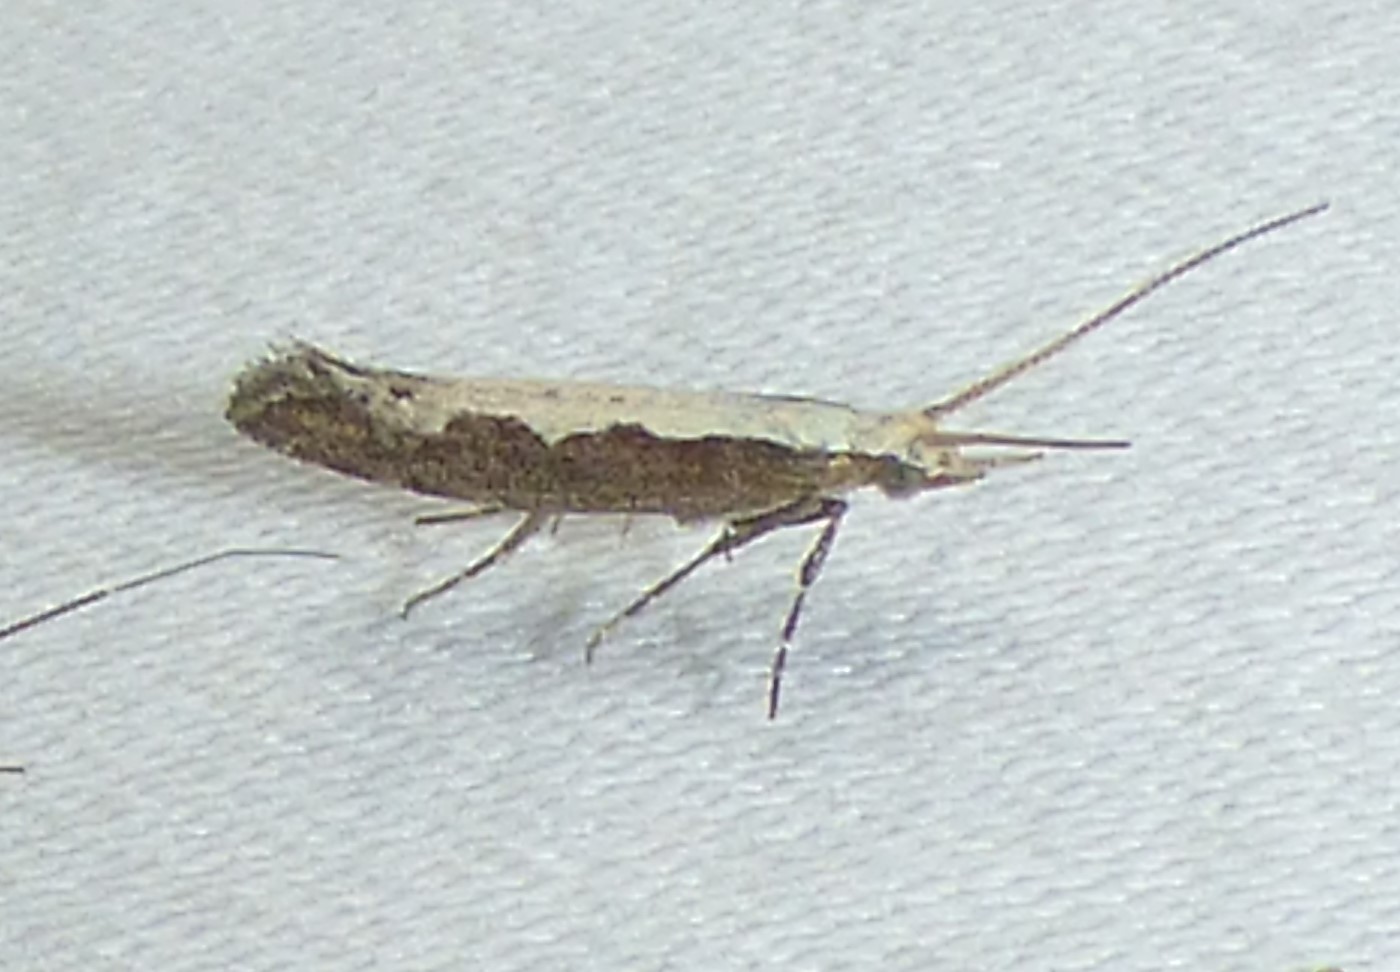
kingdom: Animalia
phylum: Arthropoda
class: Insecta
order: Lepidoptera
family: Plutellidae
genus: Plutella
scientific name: Plutella xylostella
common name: Diamond-back moth
